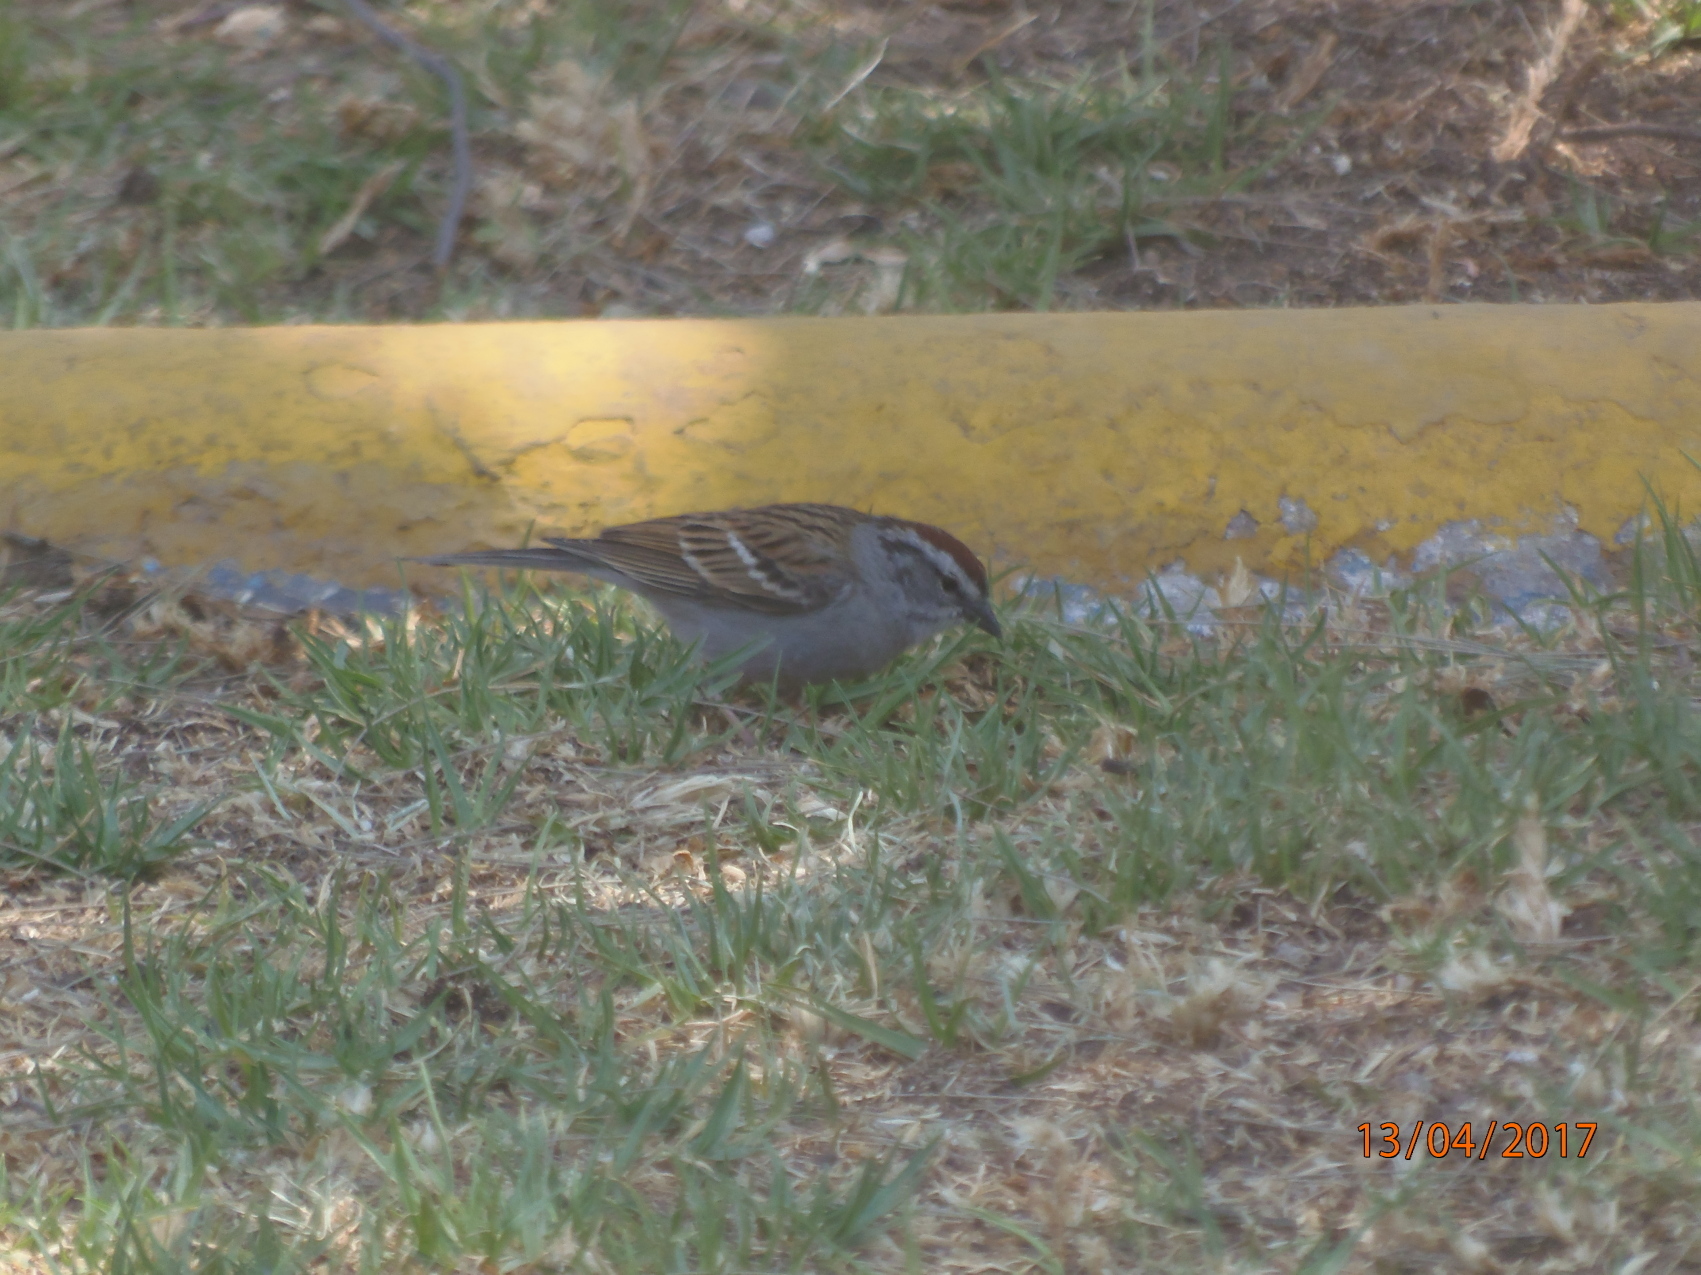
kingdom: Animalia
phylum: Chordata
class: Aves
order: Passeriformes
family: Passerellidae
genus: Spizella
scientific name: Spizella passerina
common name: Chipping sparrow
